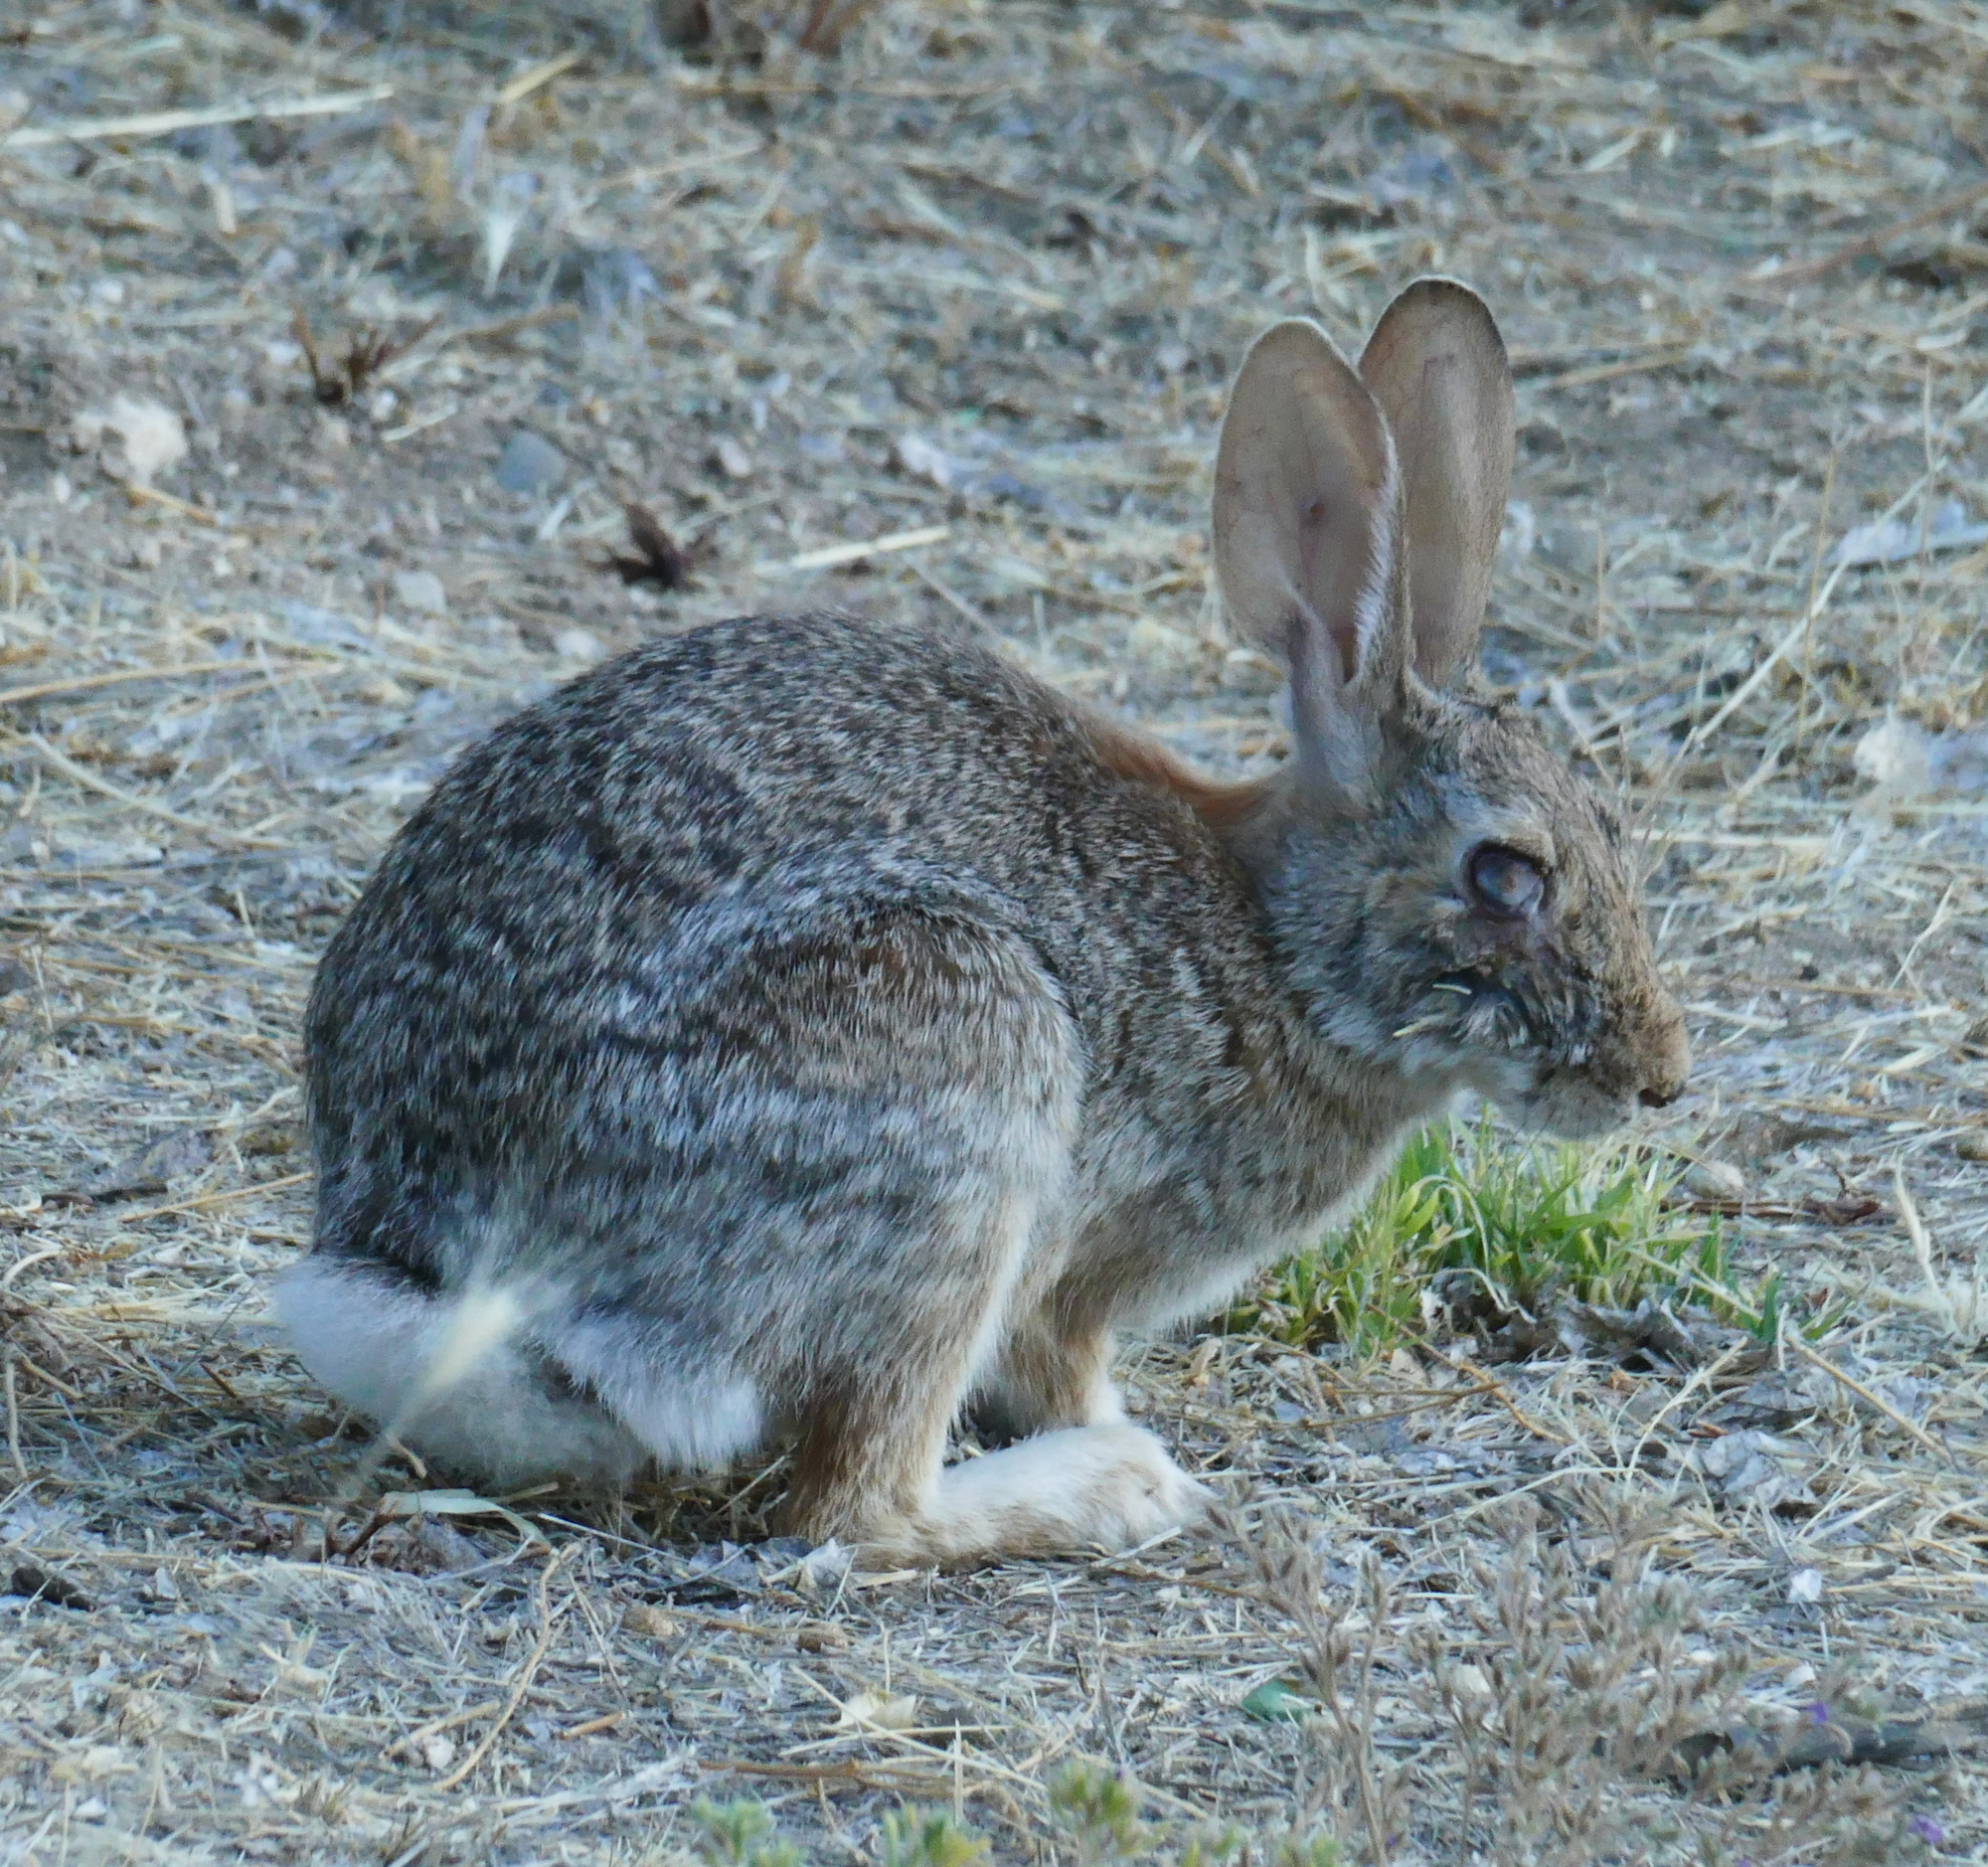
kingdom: Animalia
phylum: Chordata
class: Mammalia
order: Lagomorpha
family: Leporidae
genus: Sylvilagus
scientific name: Sylvilagus audubonii
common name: Desert cottontail
